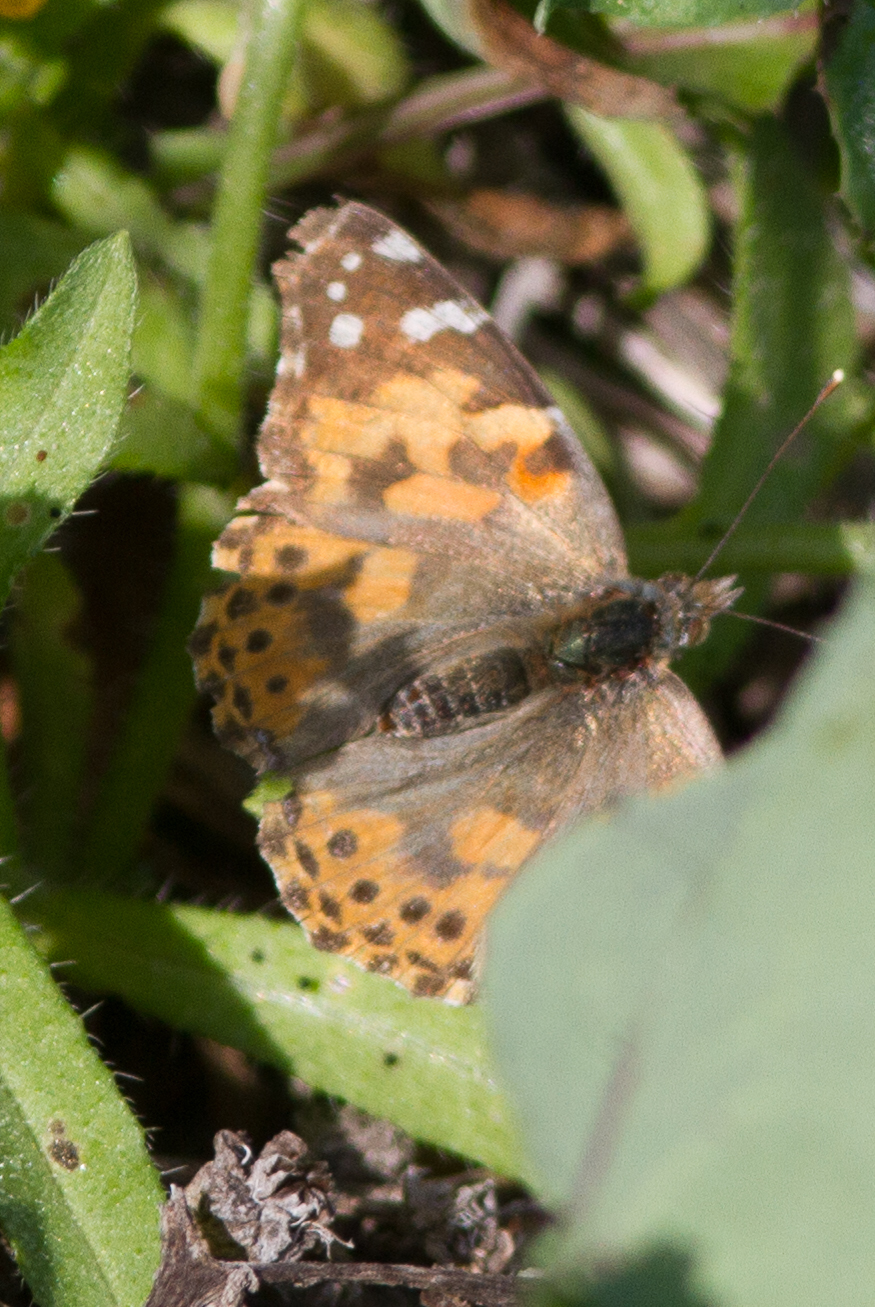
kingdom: Animalia
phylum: Arthropoda
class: Insecta
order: Lepidoptera
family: Nymphalidae
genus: Vanessa
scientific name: Vanessa cardui
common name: Painted lady
